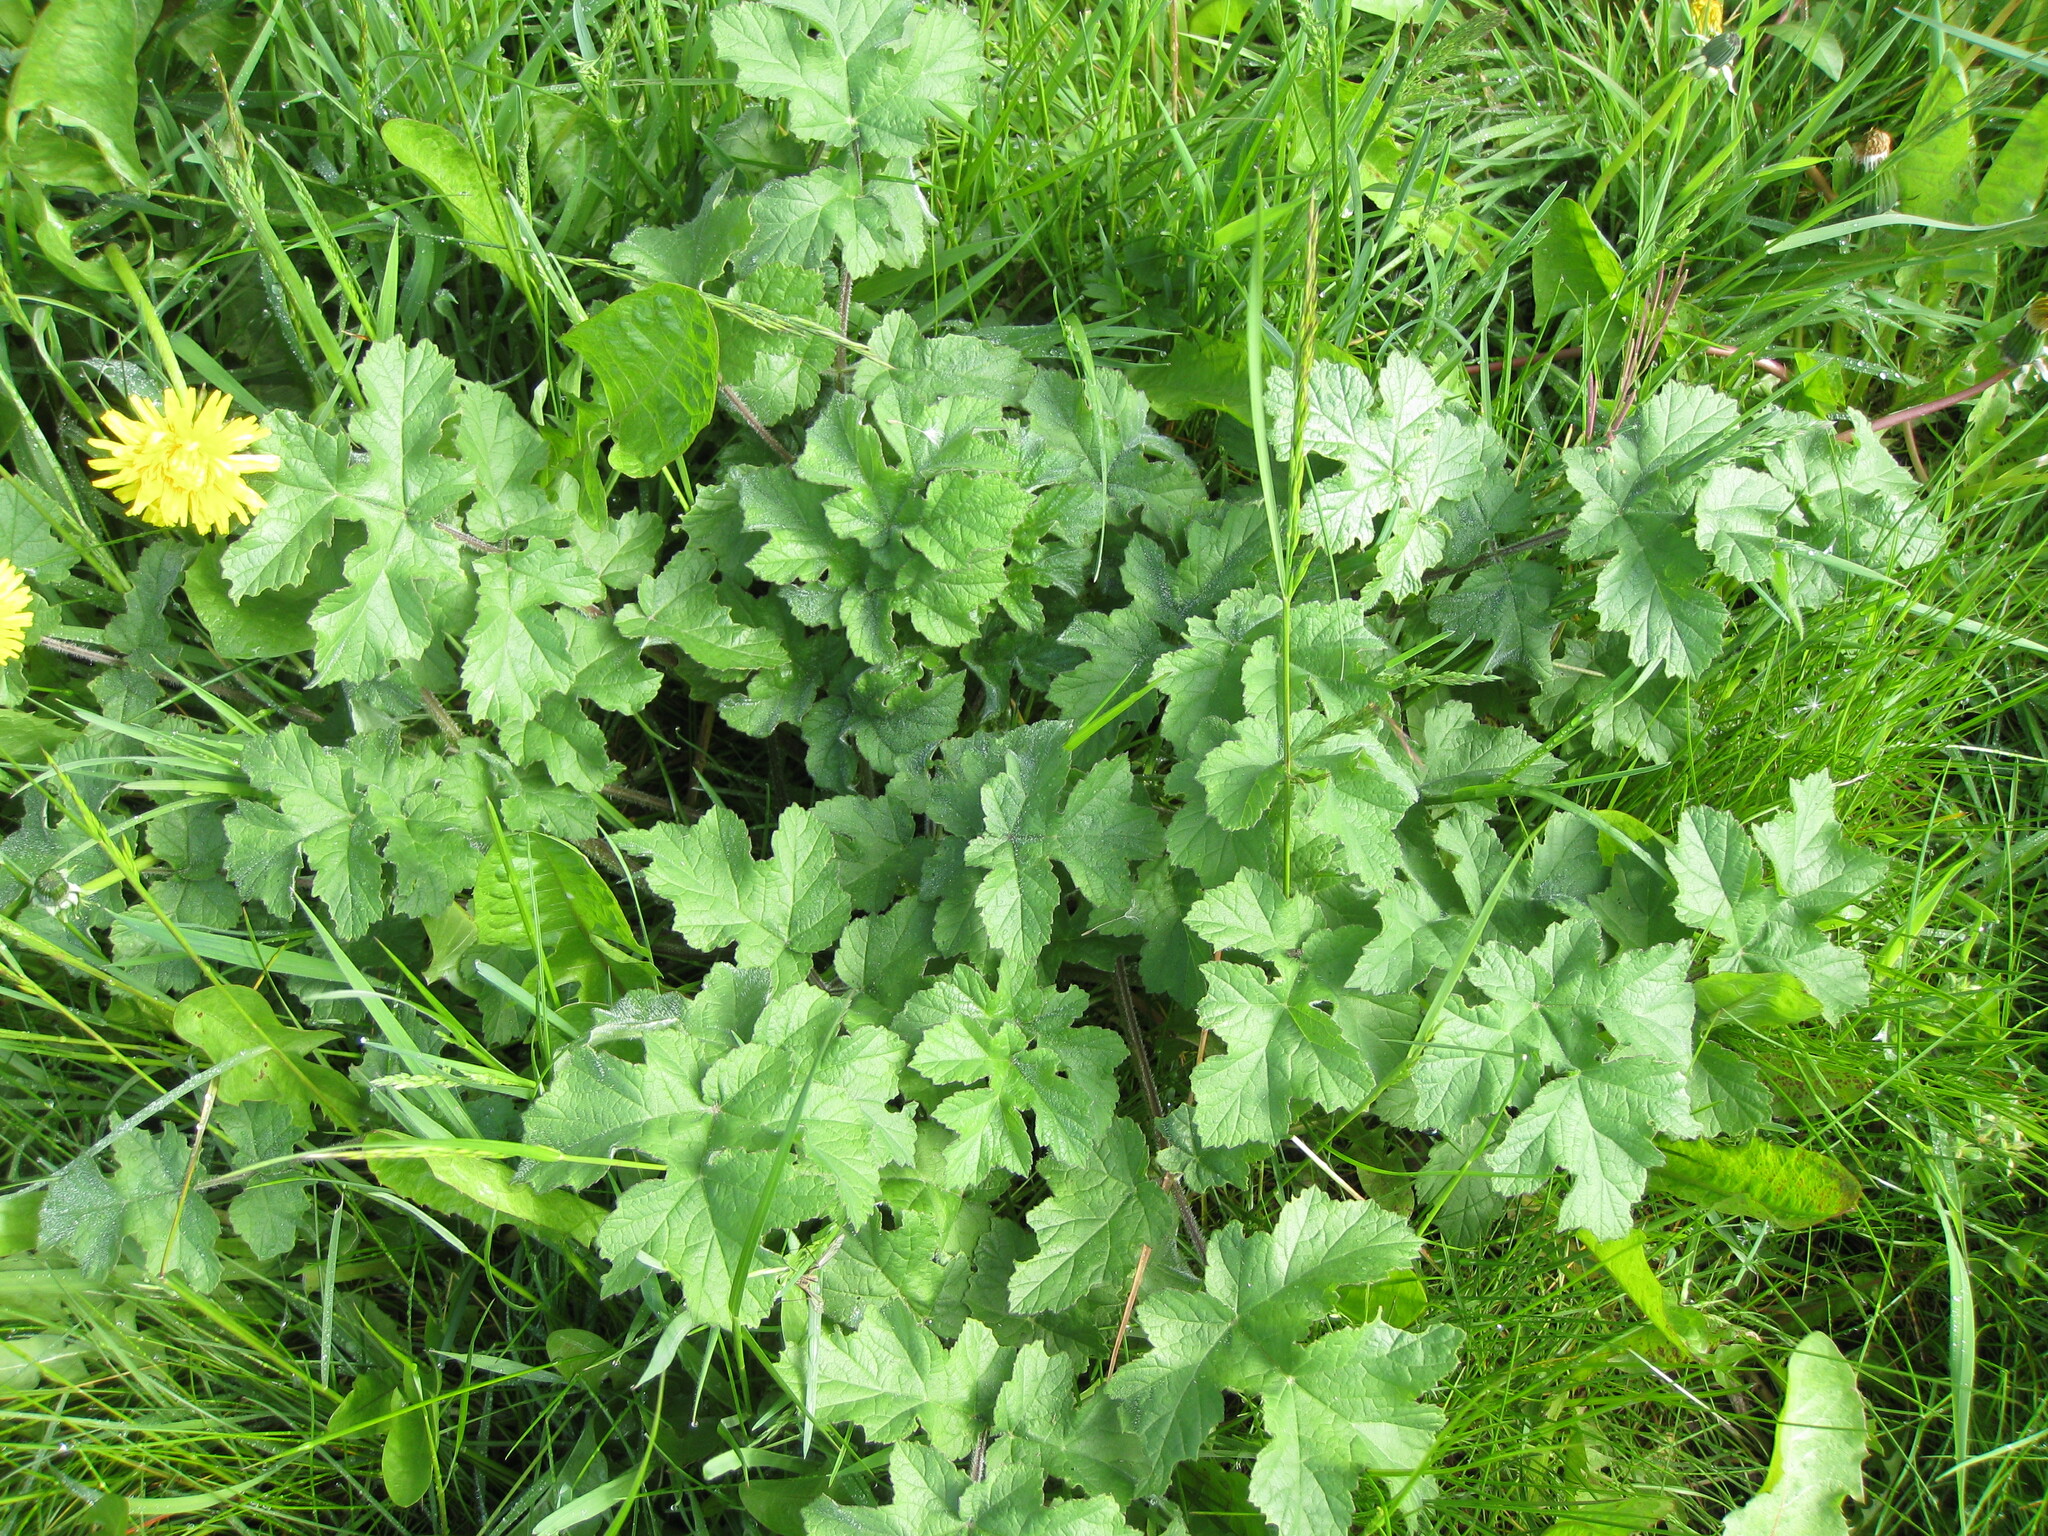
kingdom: Plantae
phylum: Tracheophyta
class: Magnoliopsida
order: Apiales
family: Apiaceae
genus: Heracleum
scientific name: Heracleum sphondylium
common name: Hogweed
